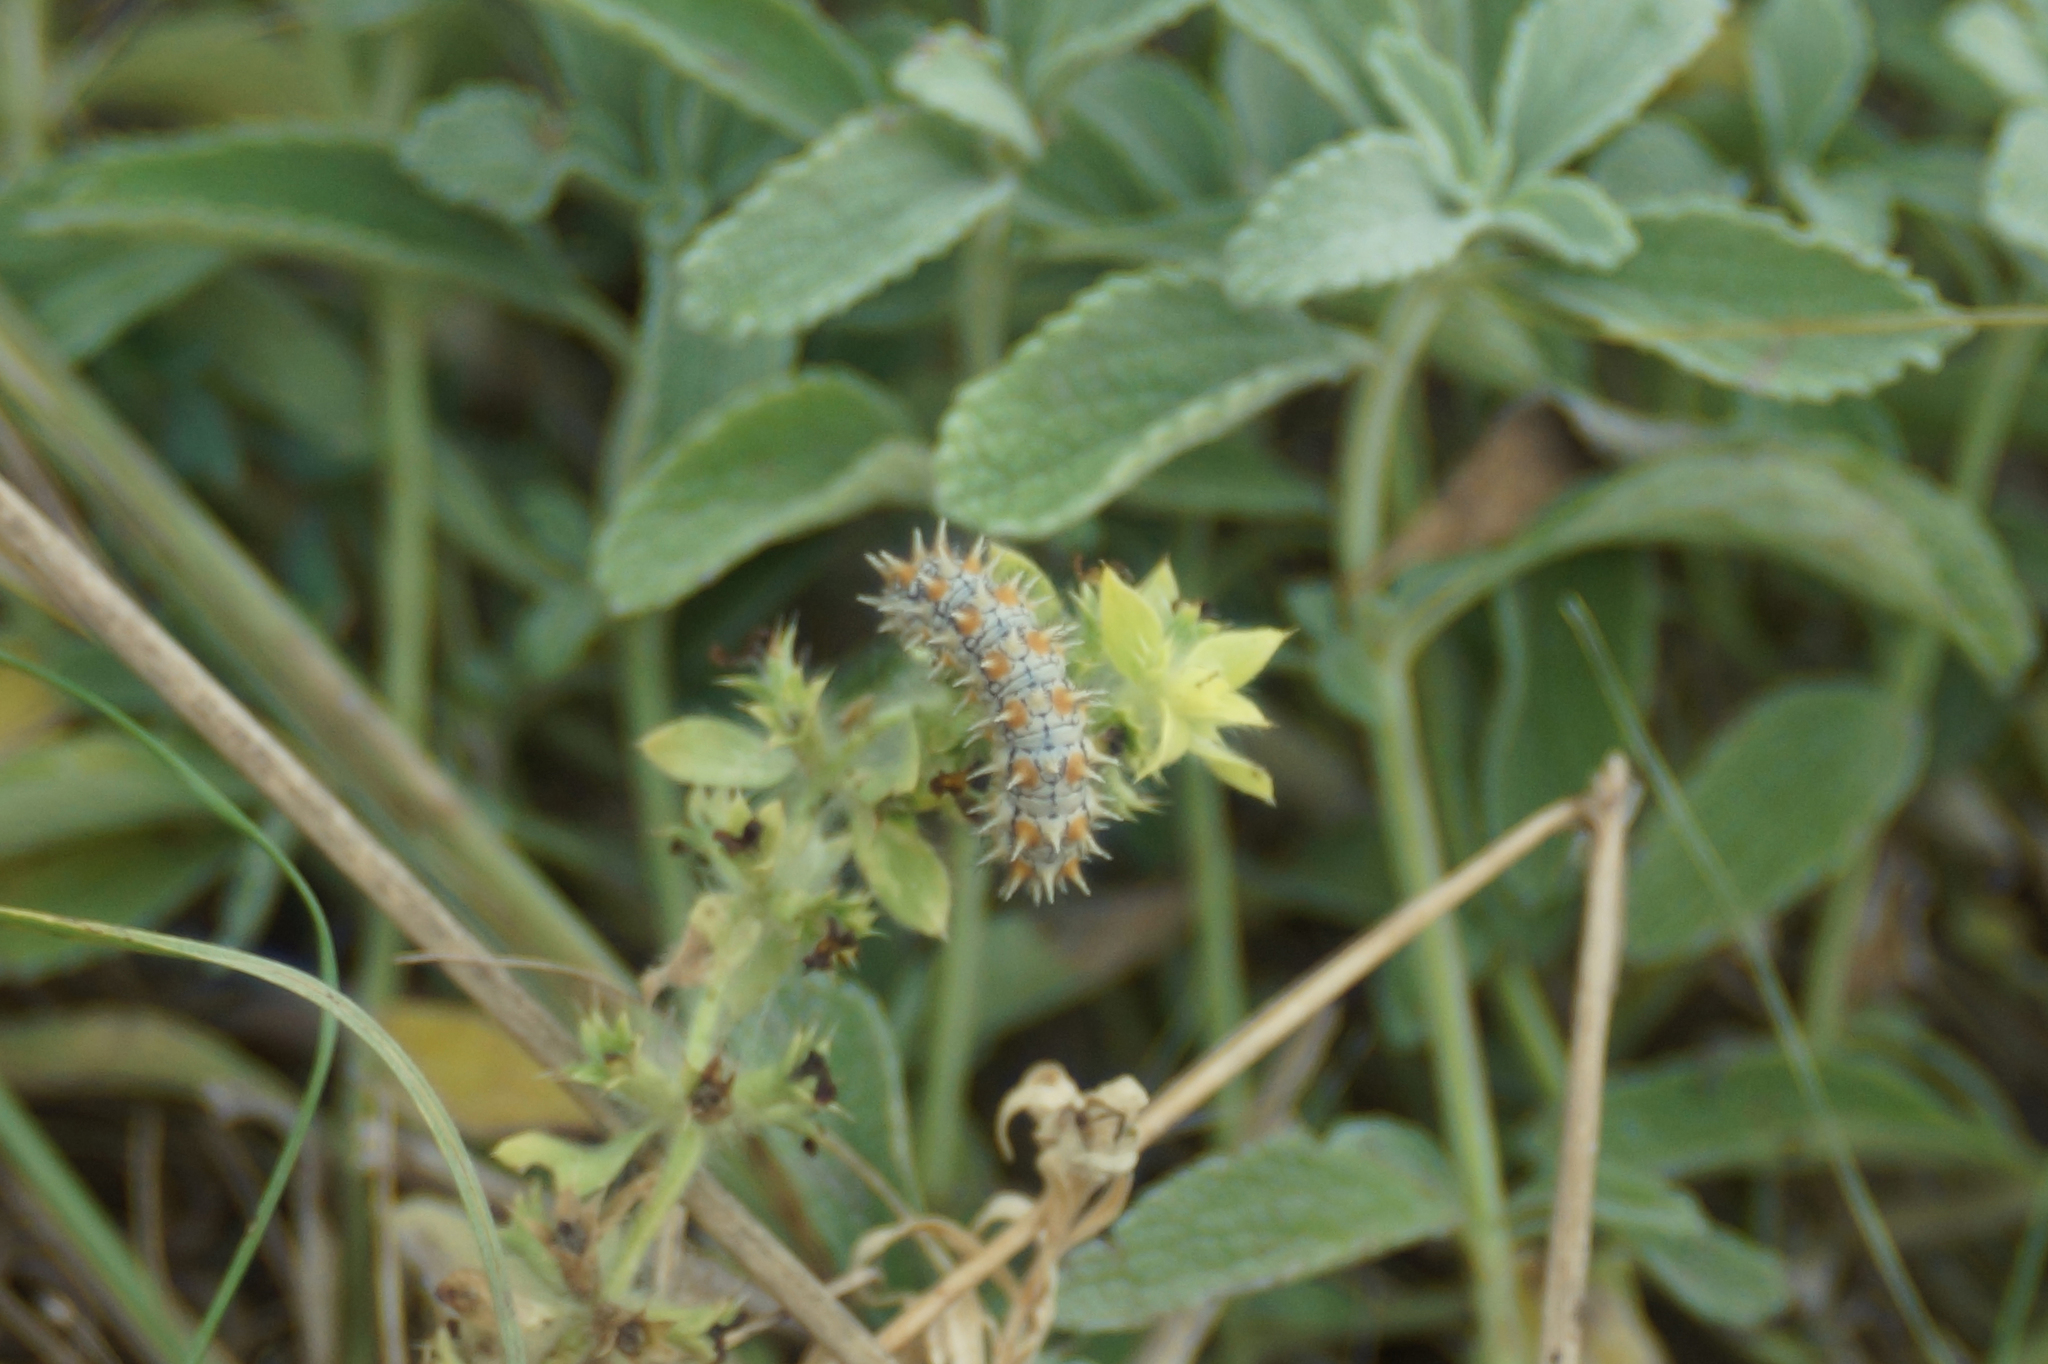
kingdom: Animalia
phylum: Arthropoda
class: Insecta
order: Lepidoptera
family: Nymphalidae
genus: Melitaea
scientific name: Melitaea didyma
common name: Spotted fritillary
